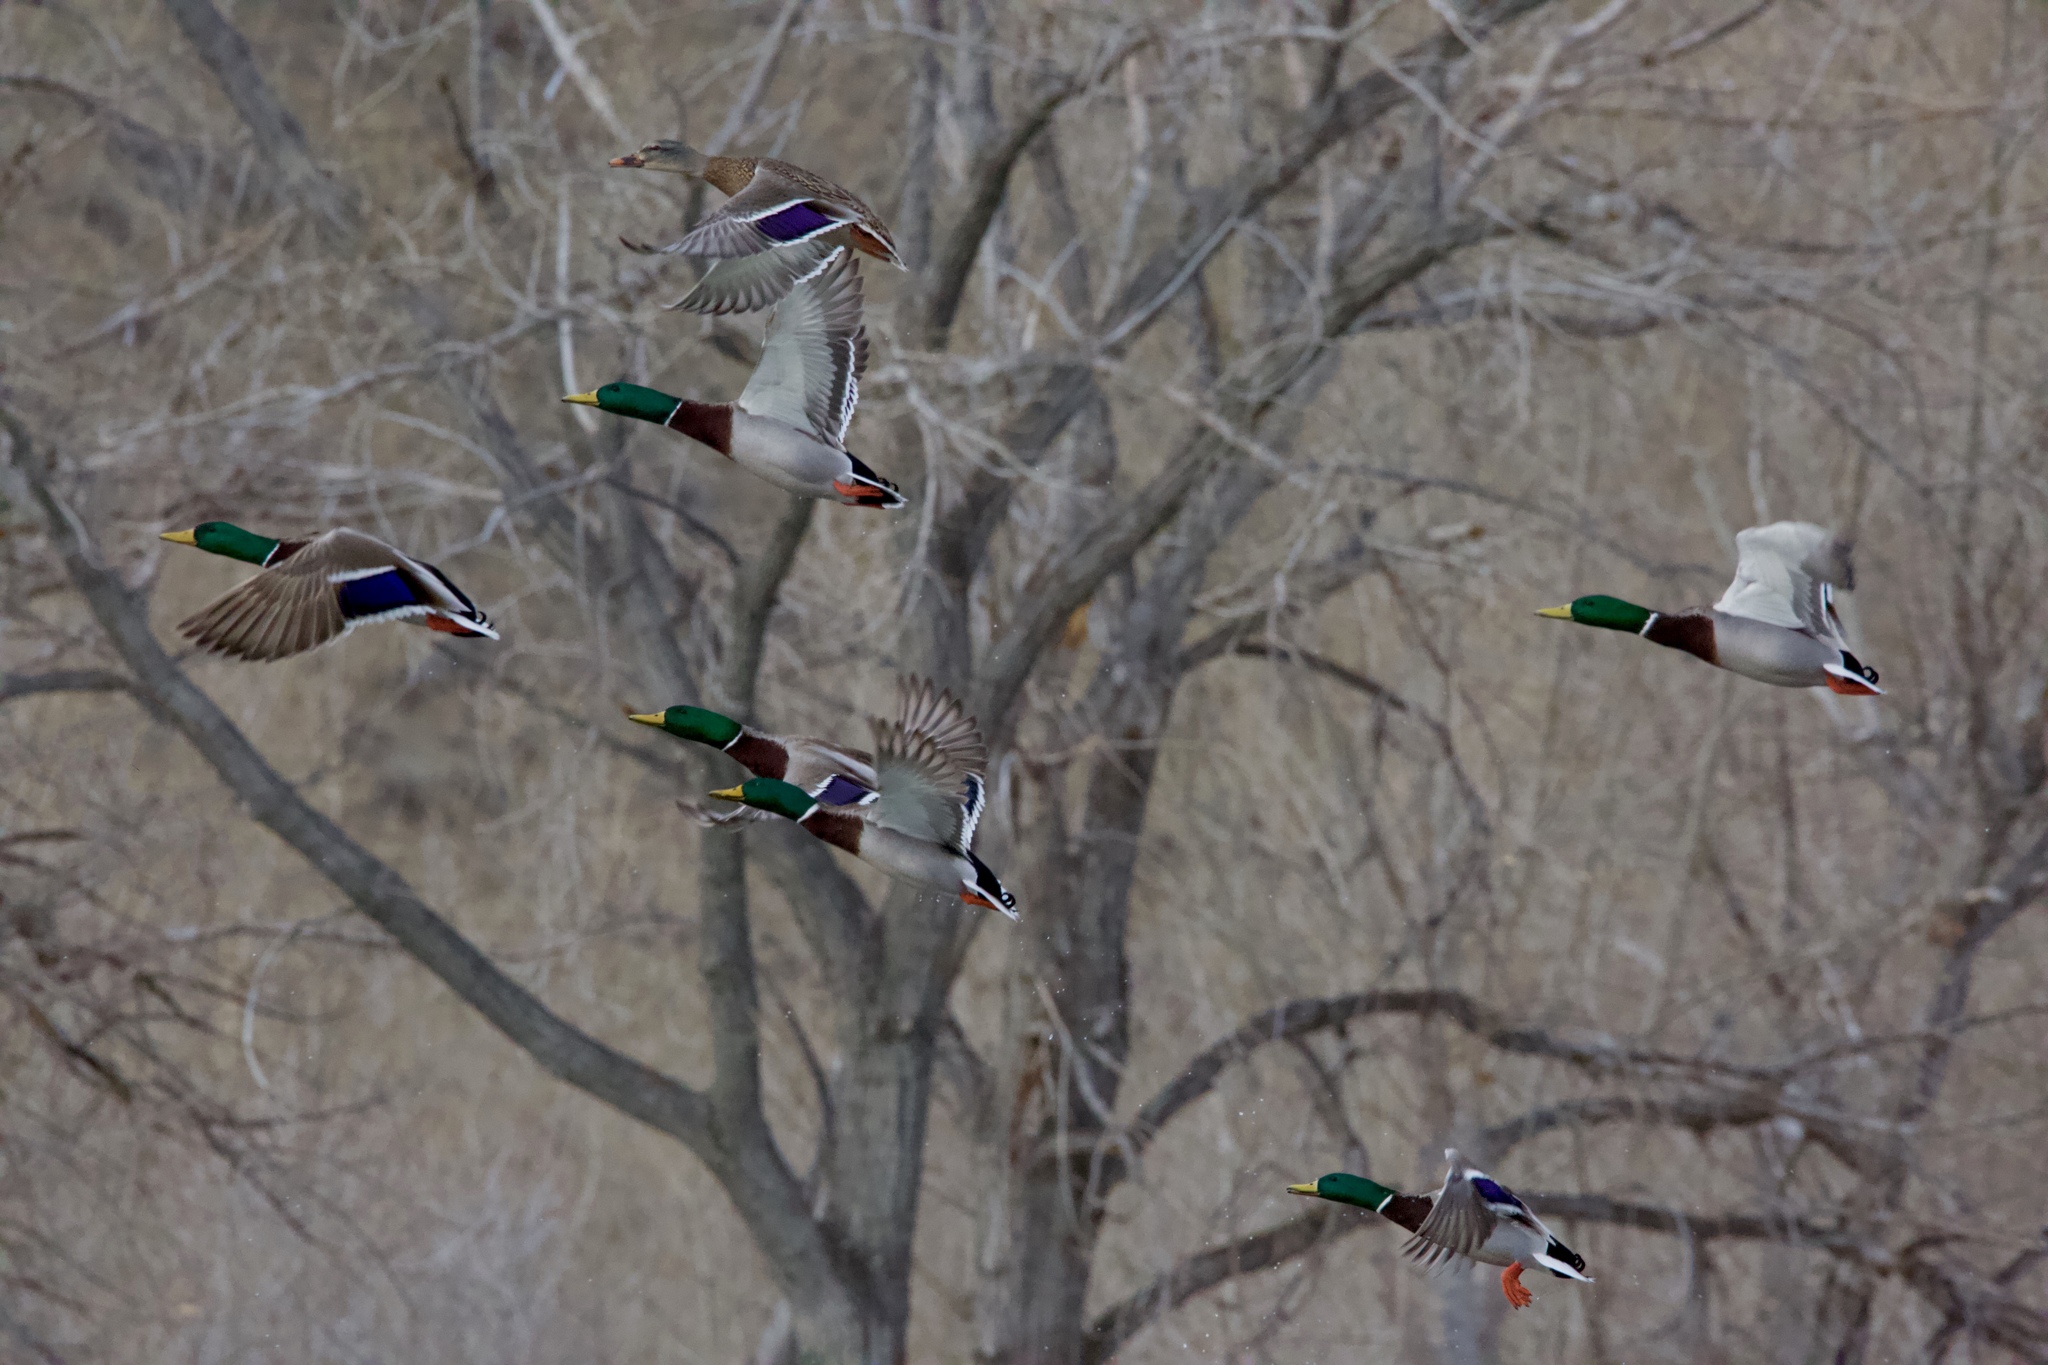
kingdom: Animalia
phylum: Chordata
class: Aves
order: Anseriformes
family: Anatidae
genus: Anas
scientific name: Anas platyrhynchos
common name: Mallard
